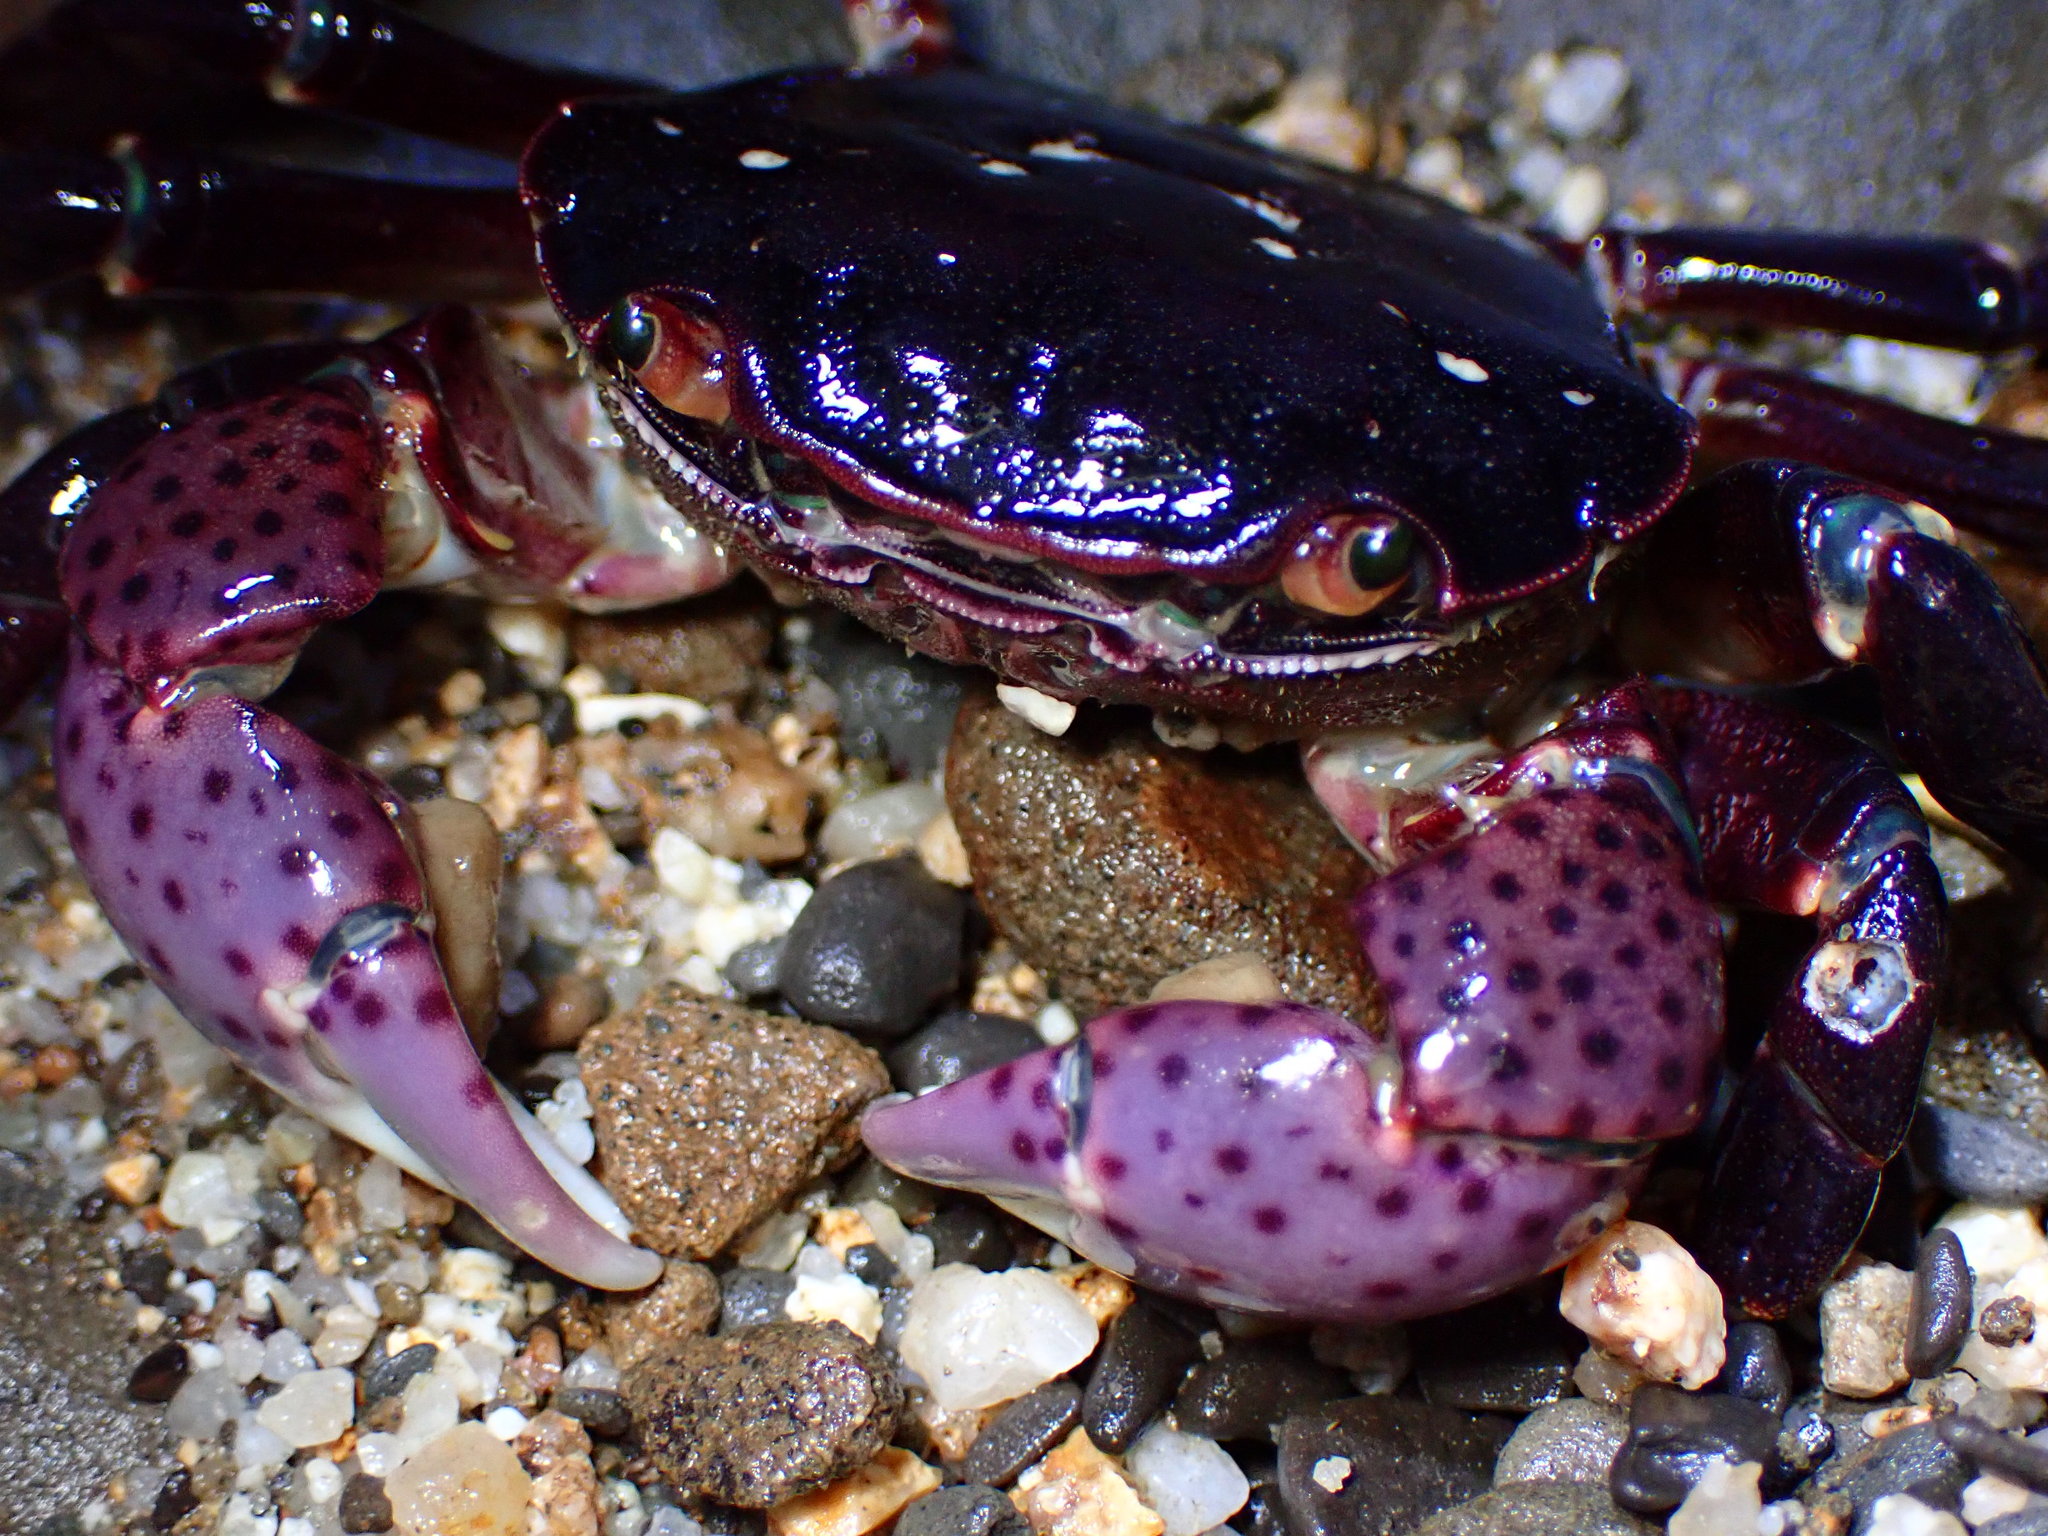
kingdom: Animalia
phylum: Arthropoda
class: Malacostraca
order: Decapoda
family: Varunidae
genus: Hemigrapsus
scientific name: Hemigrapsus nudus
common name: Purple shore crab
